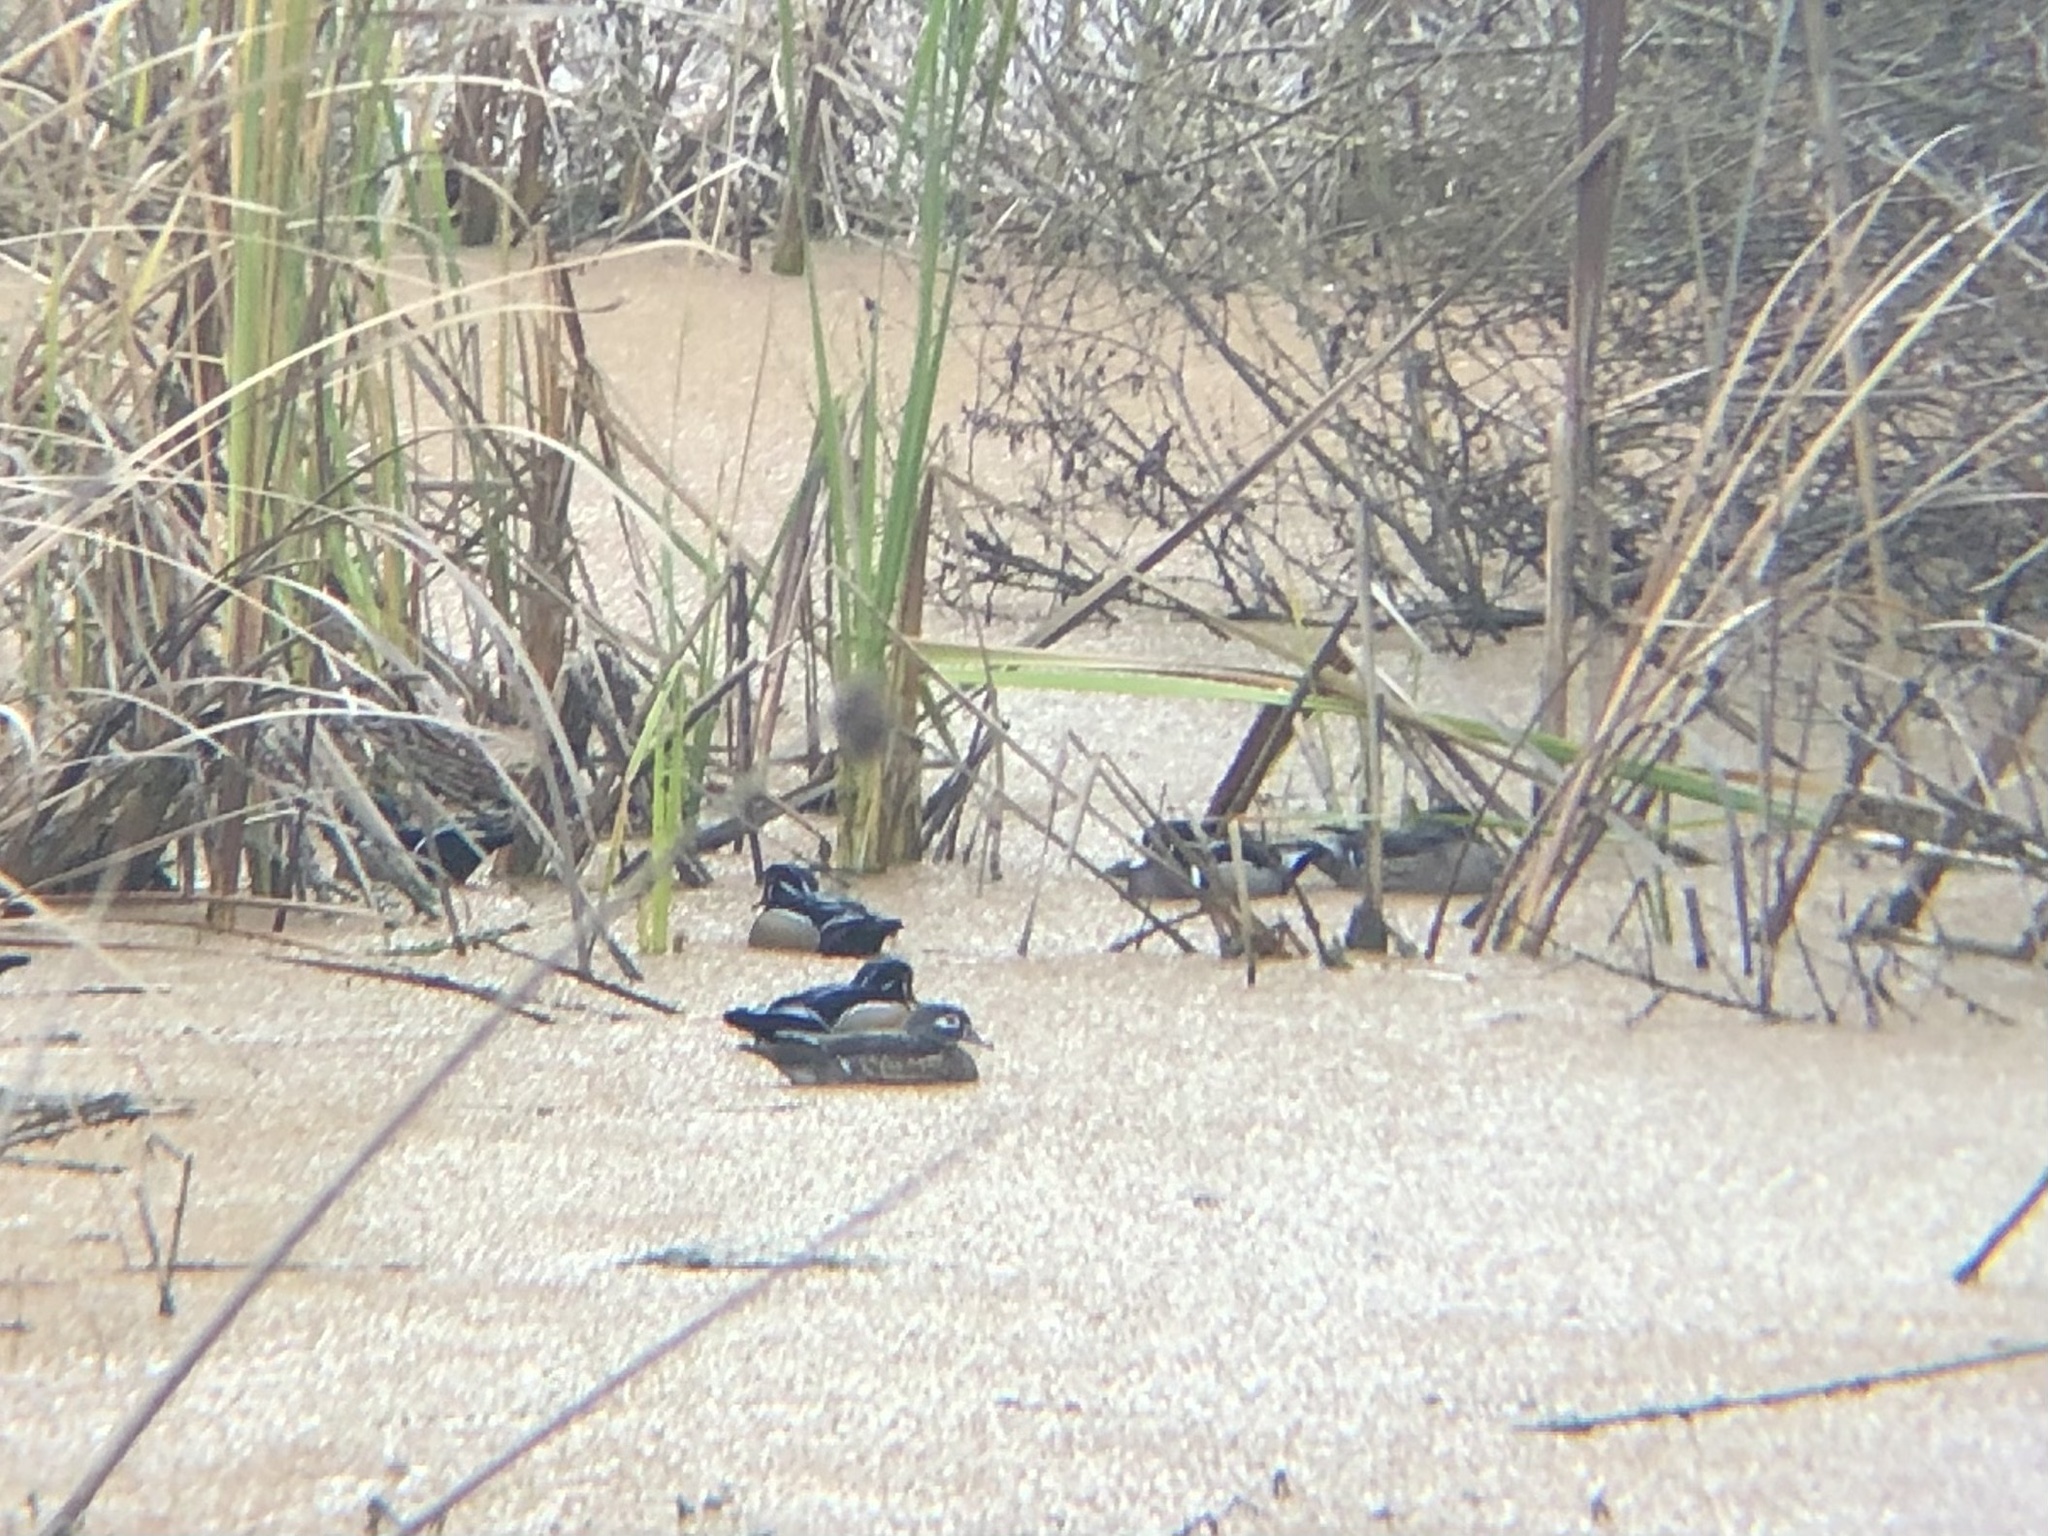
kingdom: Animalia
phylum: Chordata
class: Aves
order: Anseriformes
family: Anatidae
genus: Aix
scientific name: Aix sponsa
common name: Wood duck
